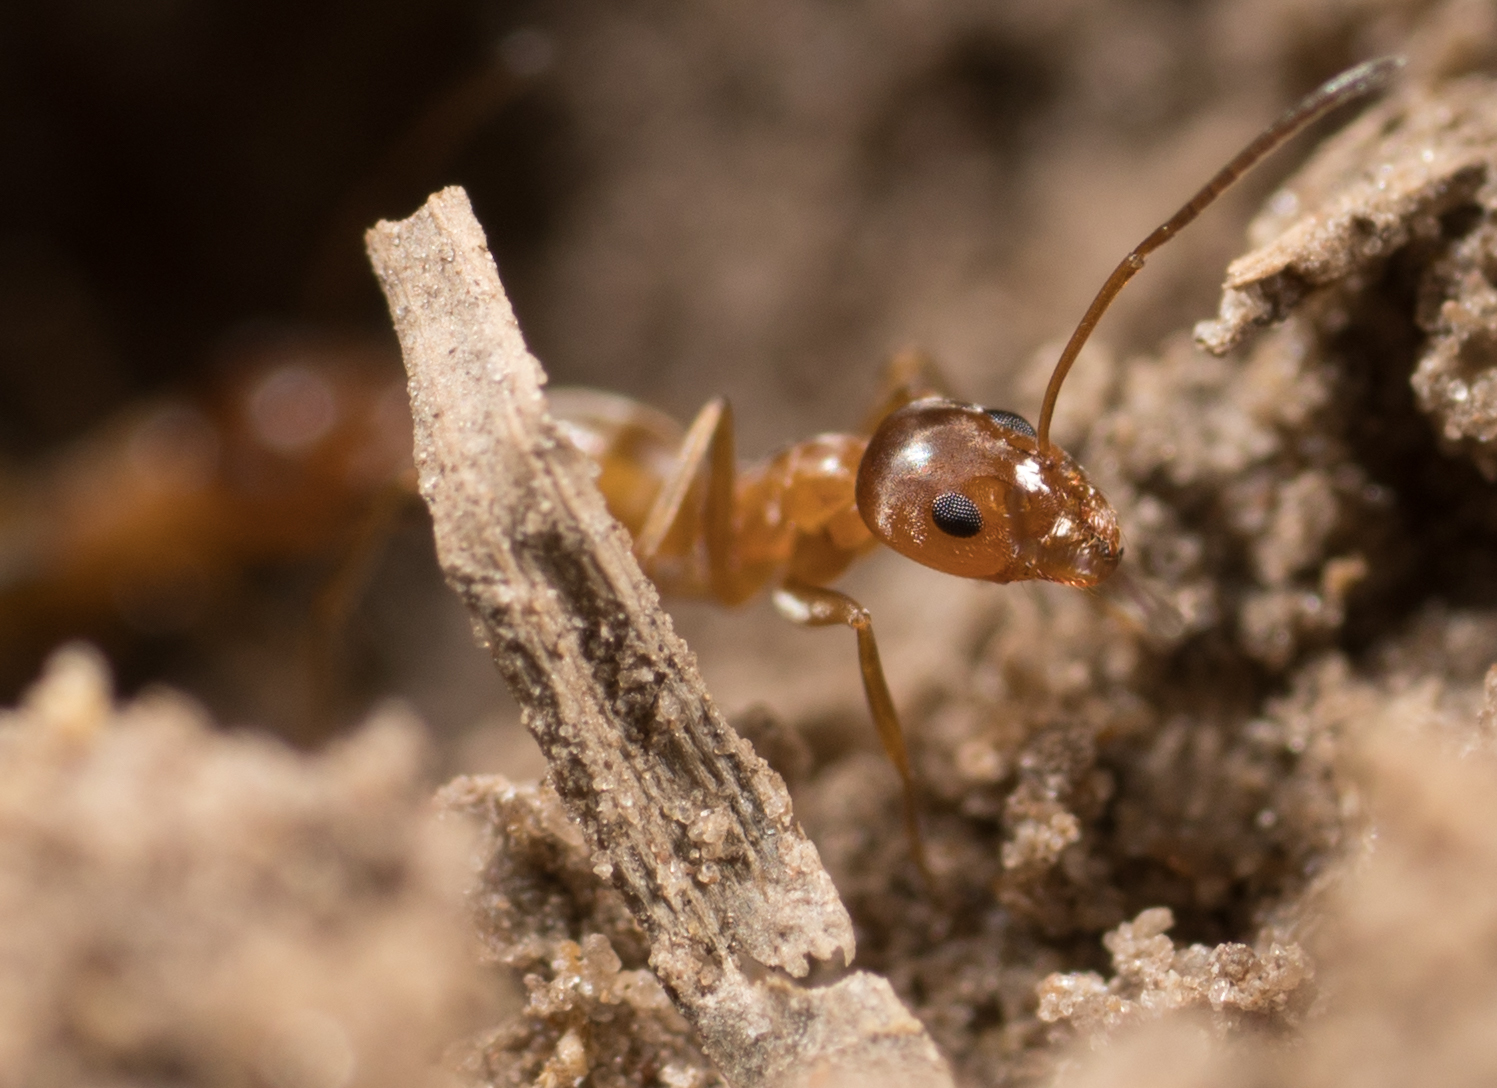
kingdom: Animalia
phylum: Arthropoda
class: Insecta
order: Hymenoptera
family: Formicidae
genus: Dorymyrmex
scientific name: Dorymyrmex flavus
